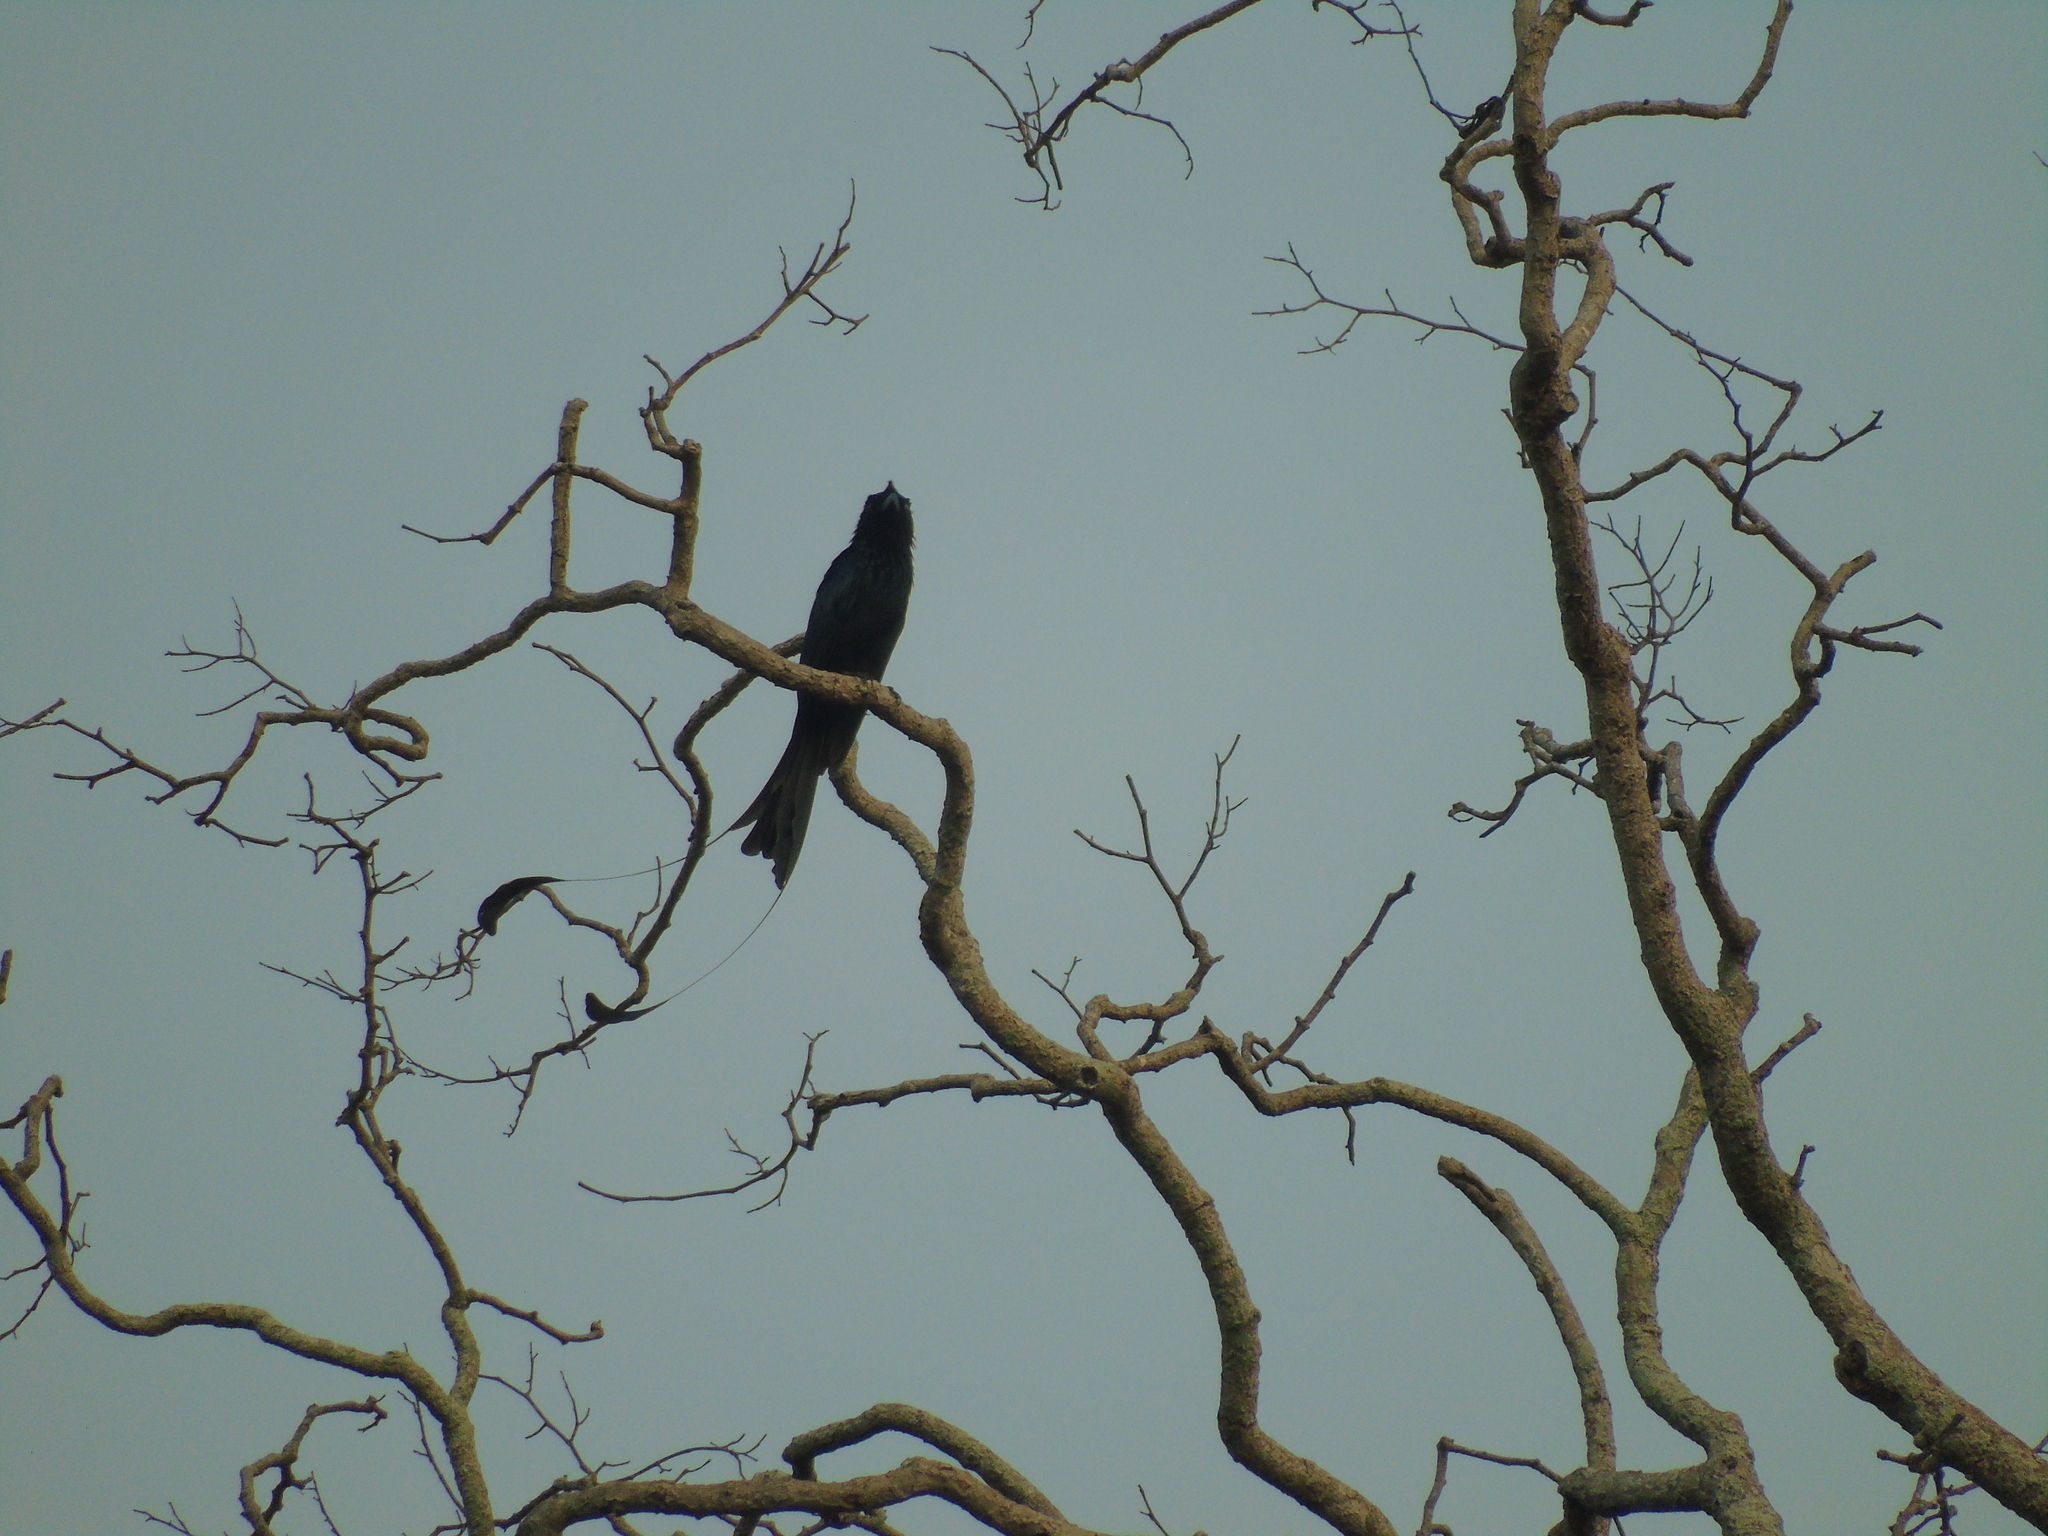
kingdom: Animalia
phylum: Chordata
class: Aves
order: Passeriformes
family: Dicruridae
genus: Dicrurus
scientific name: Dicrurus paradiseus
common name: Greater racket-tailed drongo
